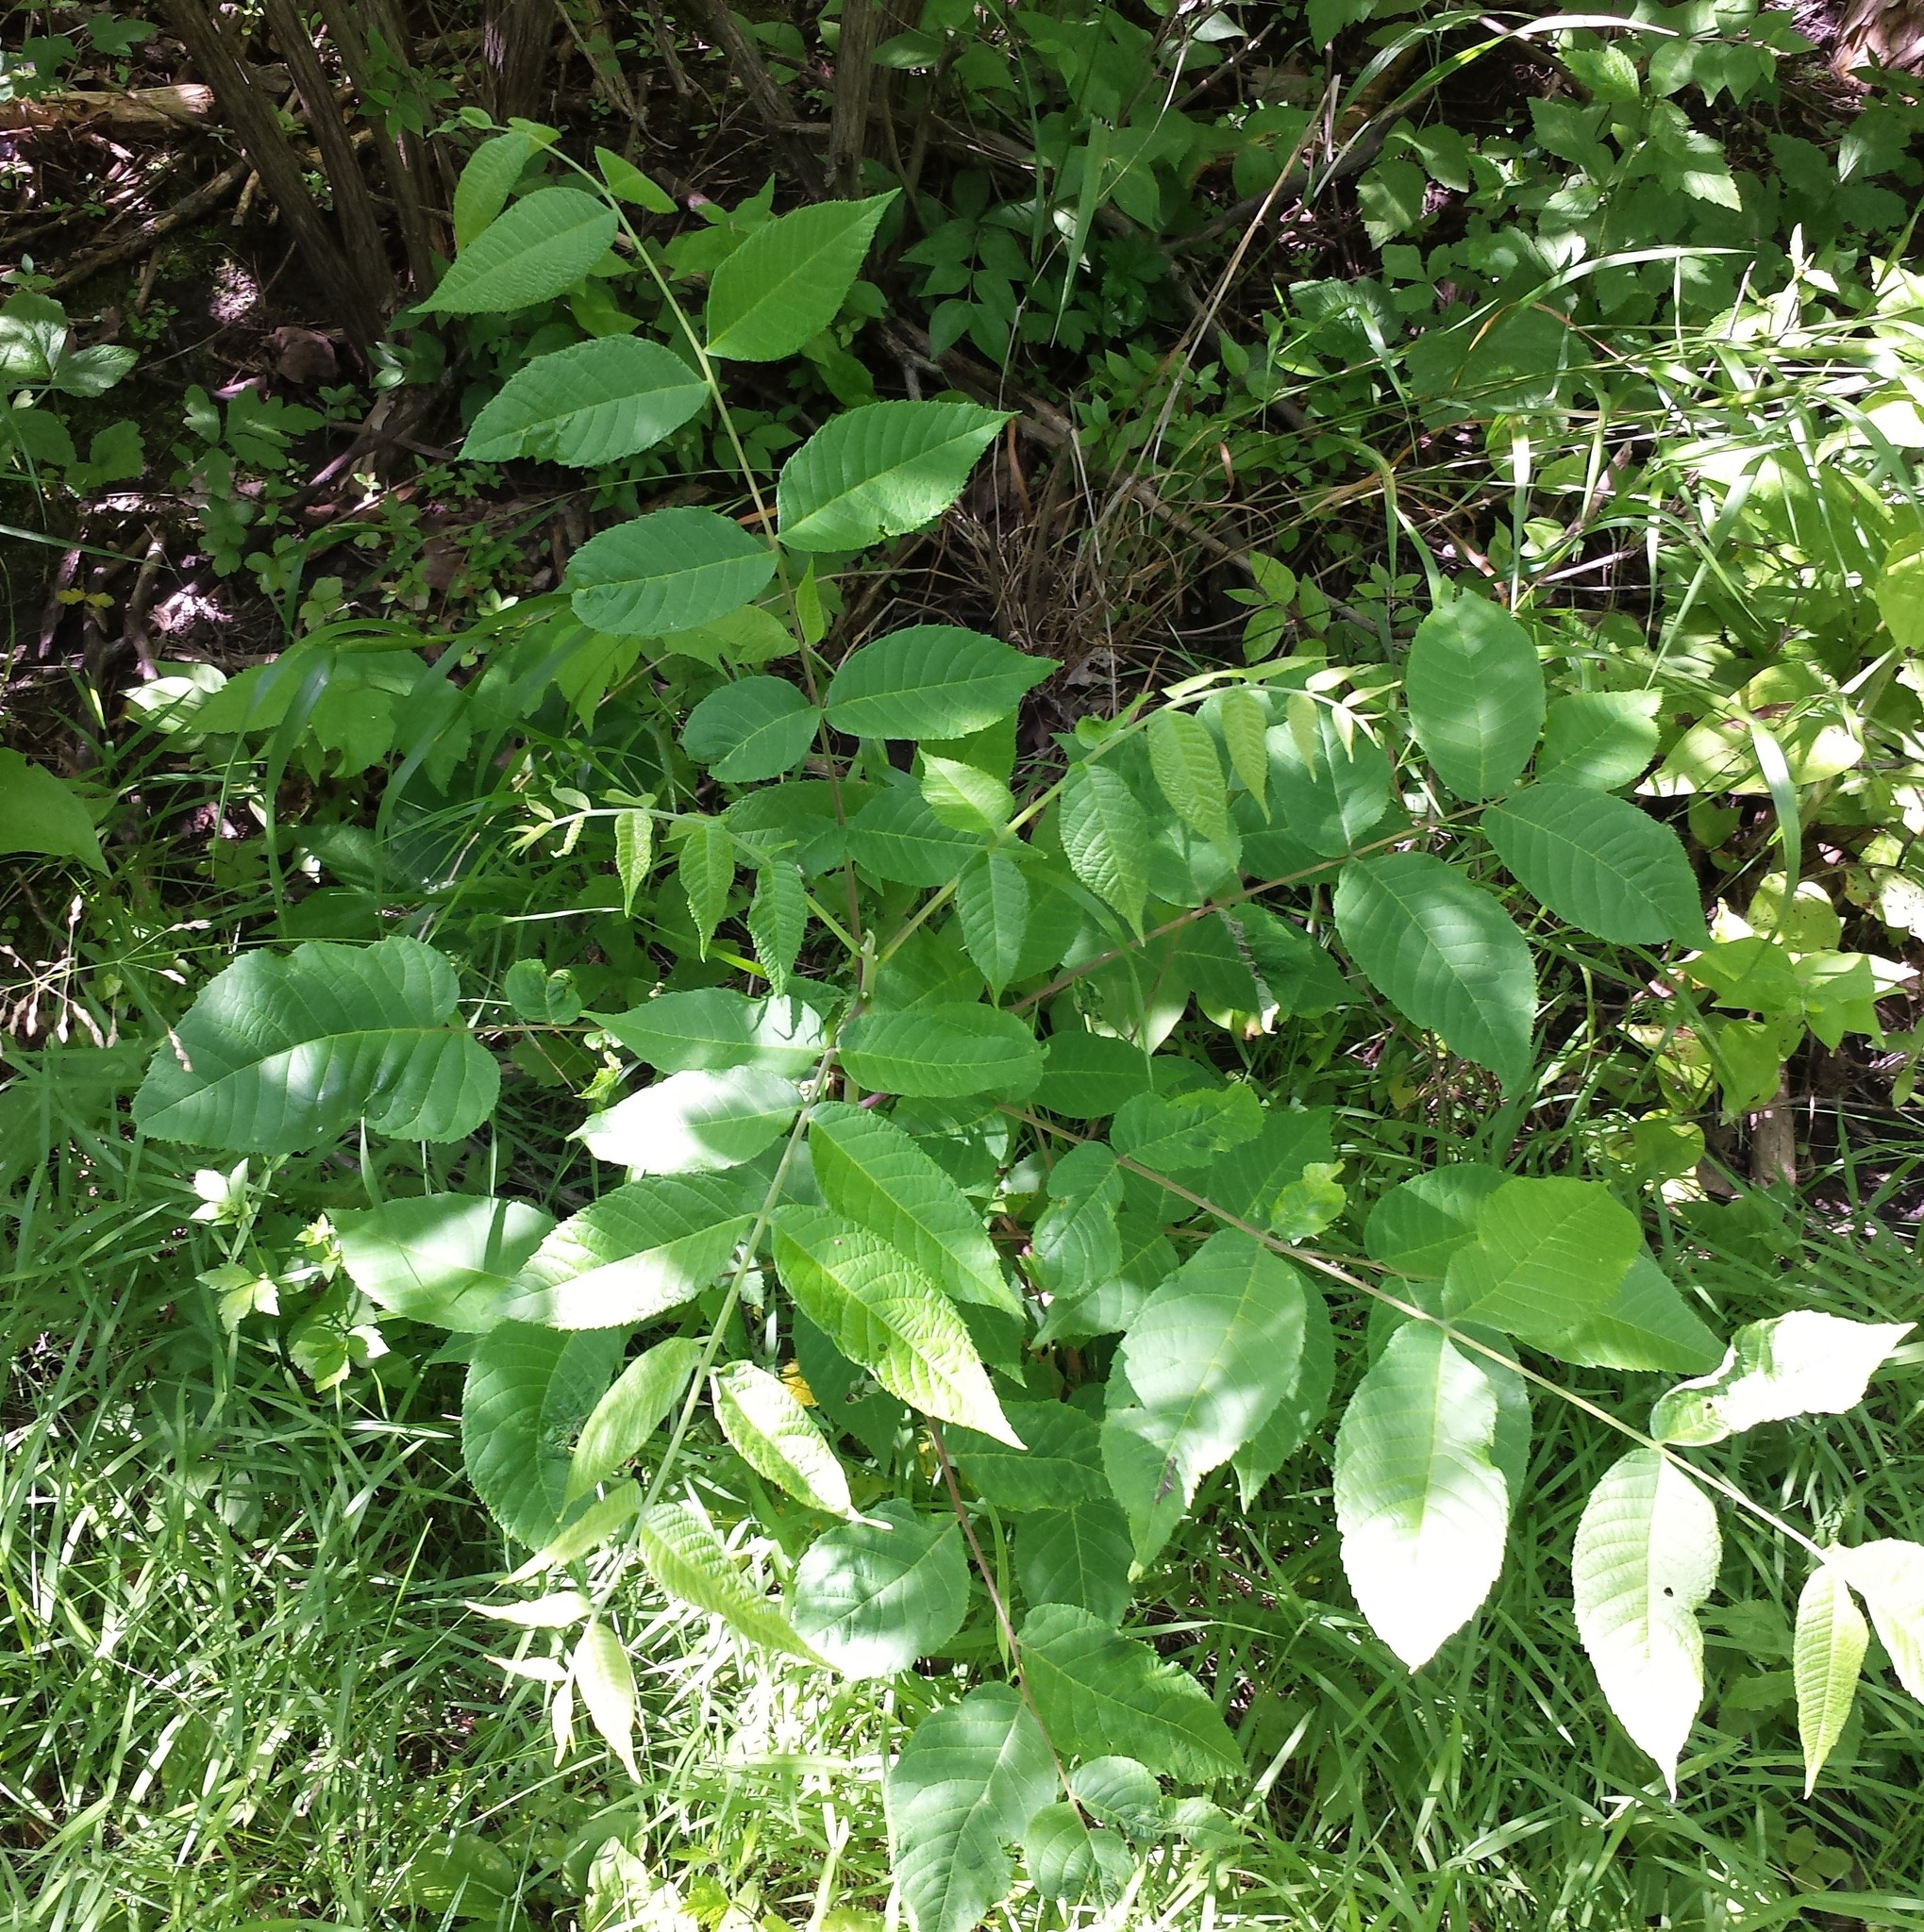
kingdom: Plantae
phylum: Tracheophyta
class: Magnoliopsida
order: Fagales
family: Juglandaceae
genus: Juglans
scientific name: Juglans nigra
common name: Black walnut
